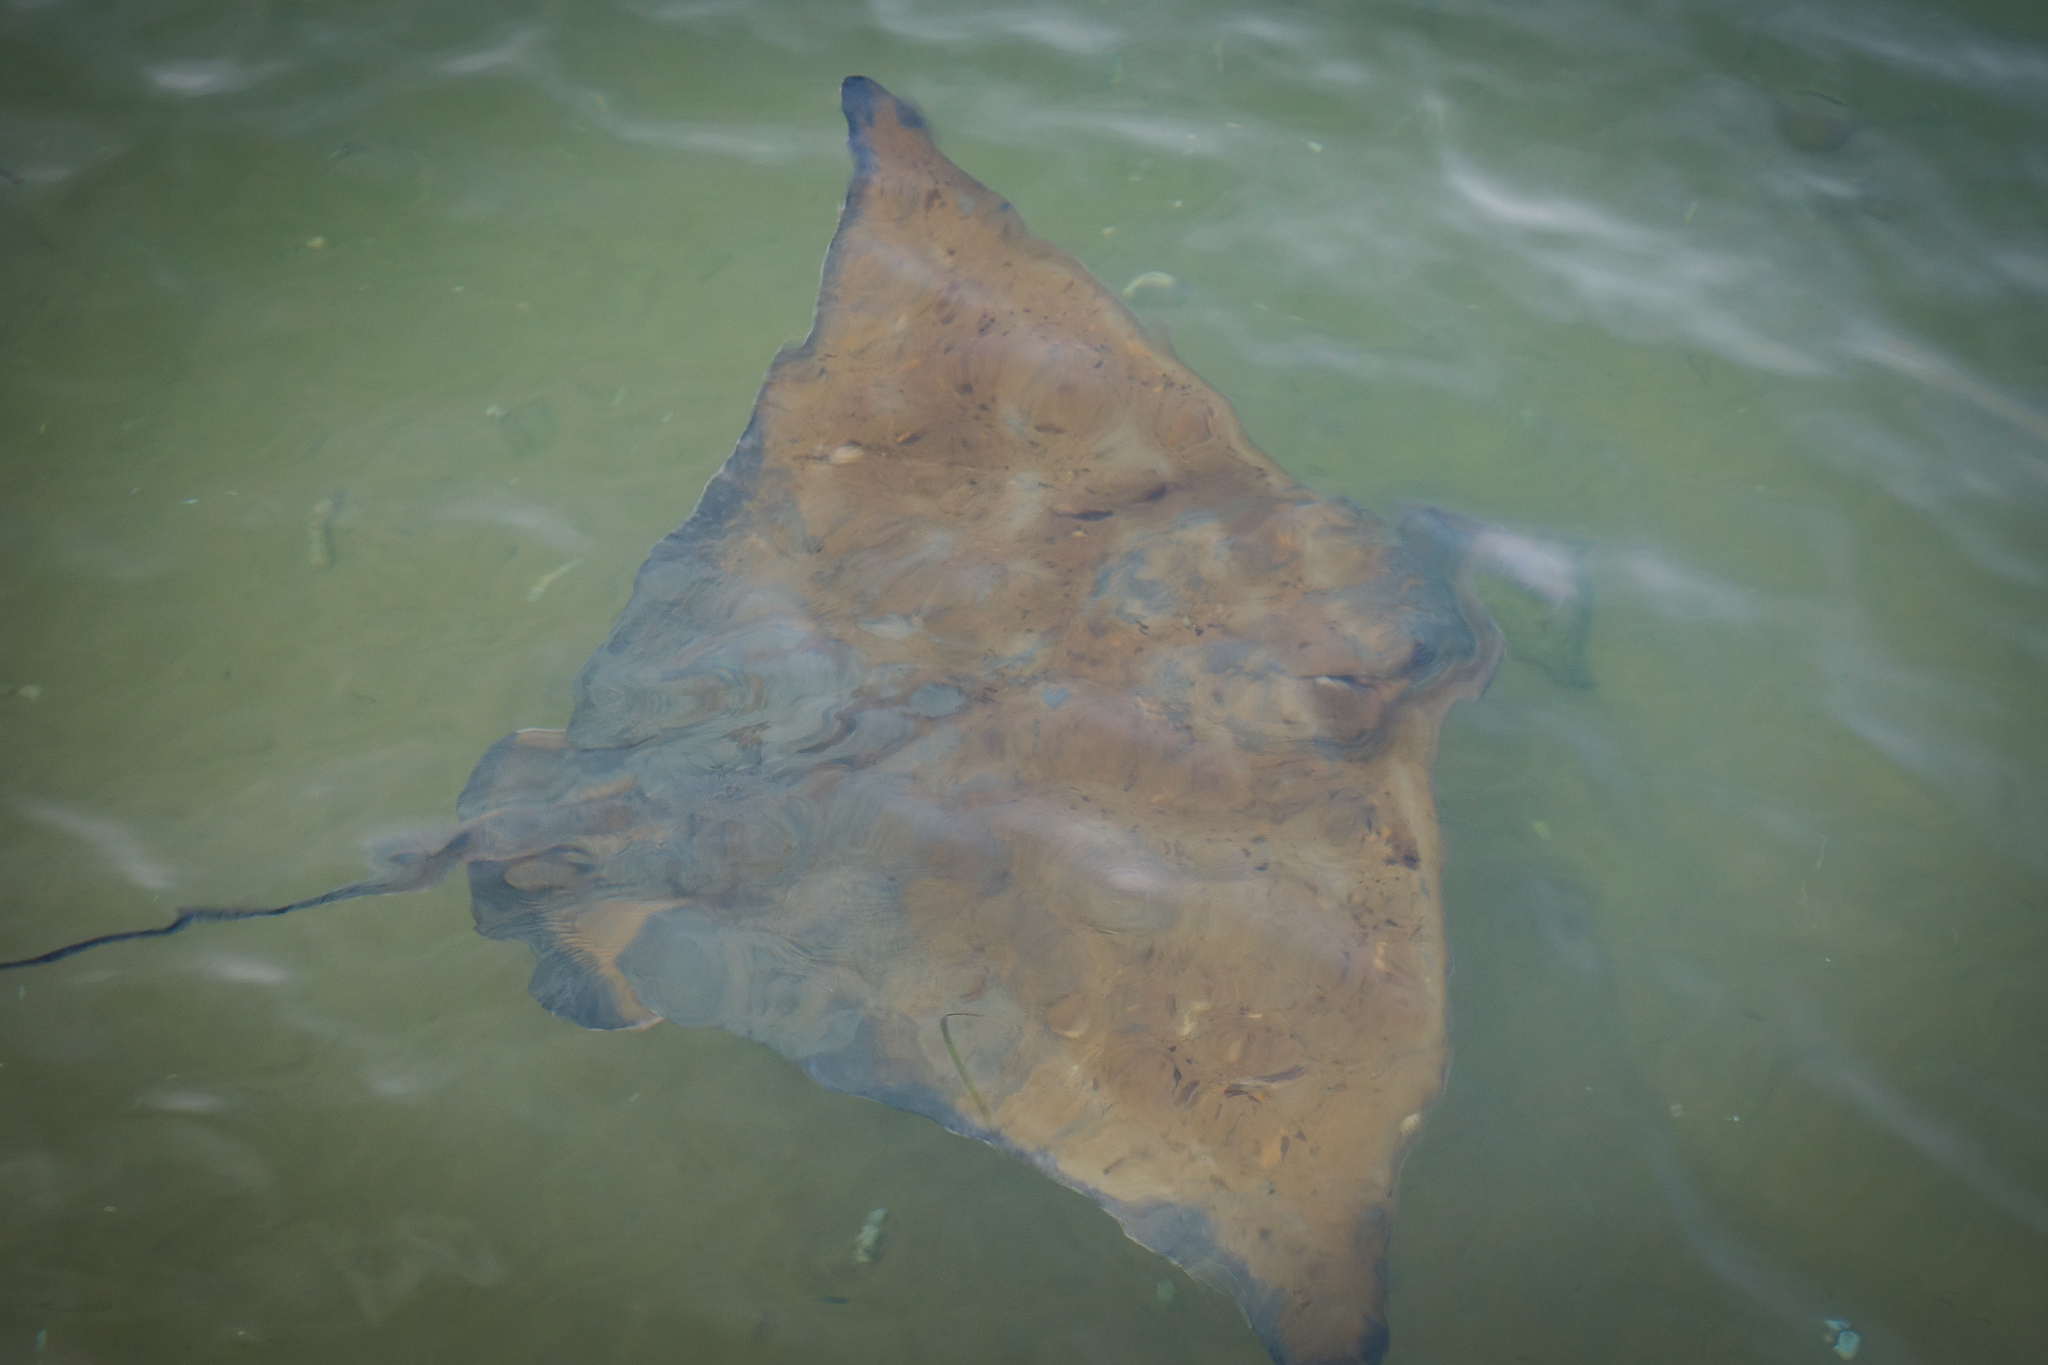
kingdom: Animalia
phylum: Chordata
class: Elasmobranchii
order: Myliobatiformes
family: Myliobatidae
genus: Myliobatis
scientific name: Myliobatis tenuicaudatus
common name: Eagle ray
